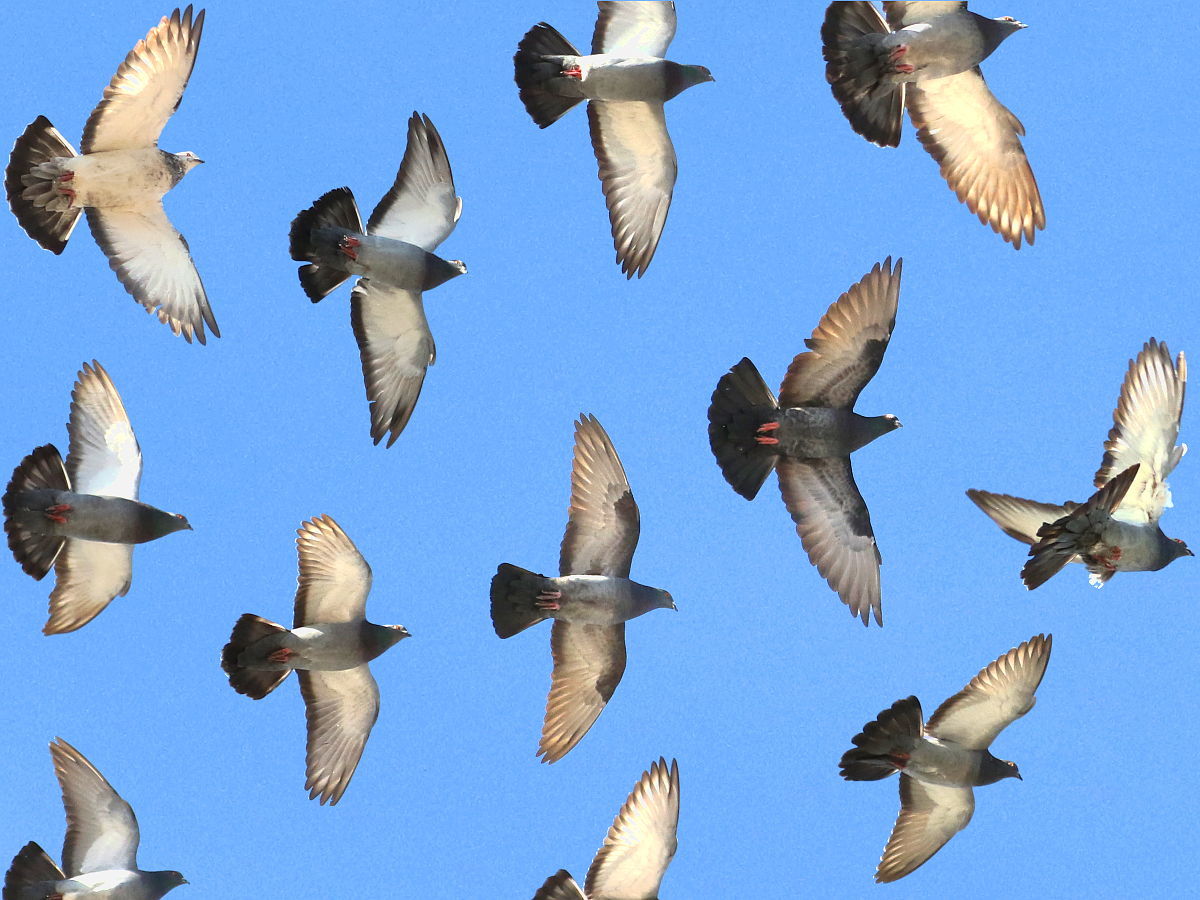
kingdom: Animalia
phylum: Chordata
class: Aves
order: Columbiformes
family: Columbidae
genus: Columba
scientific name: Columba livia
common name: Rock pigeon
